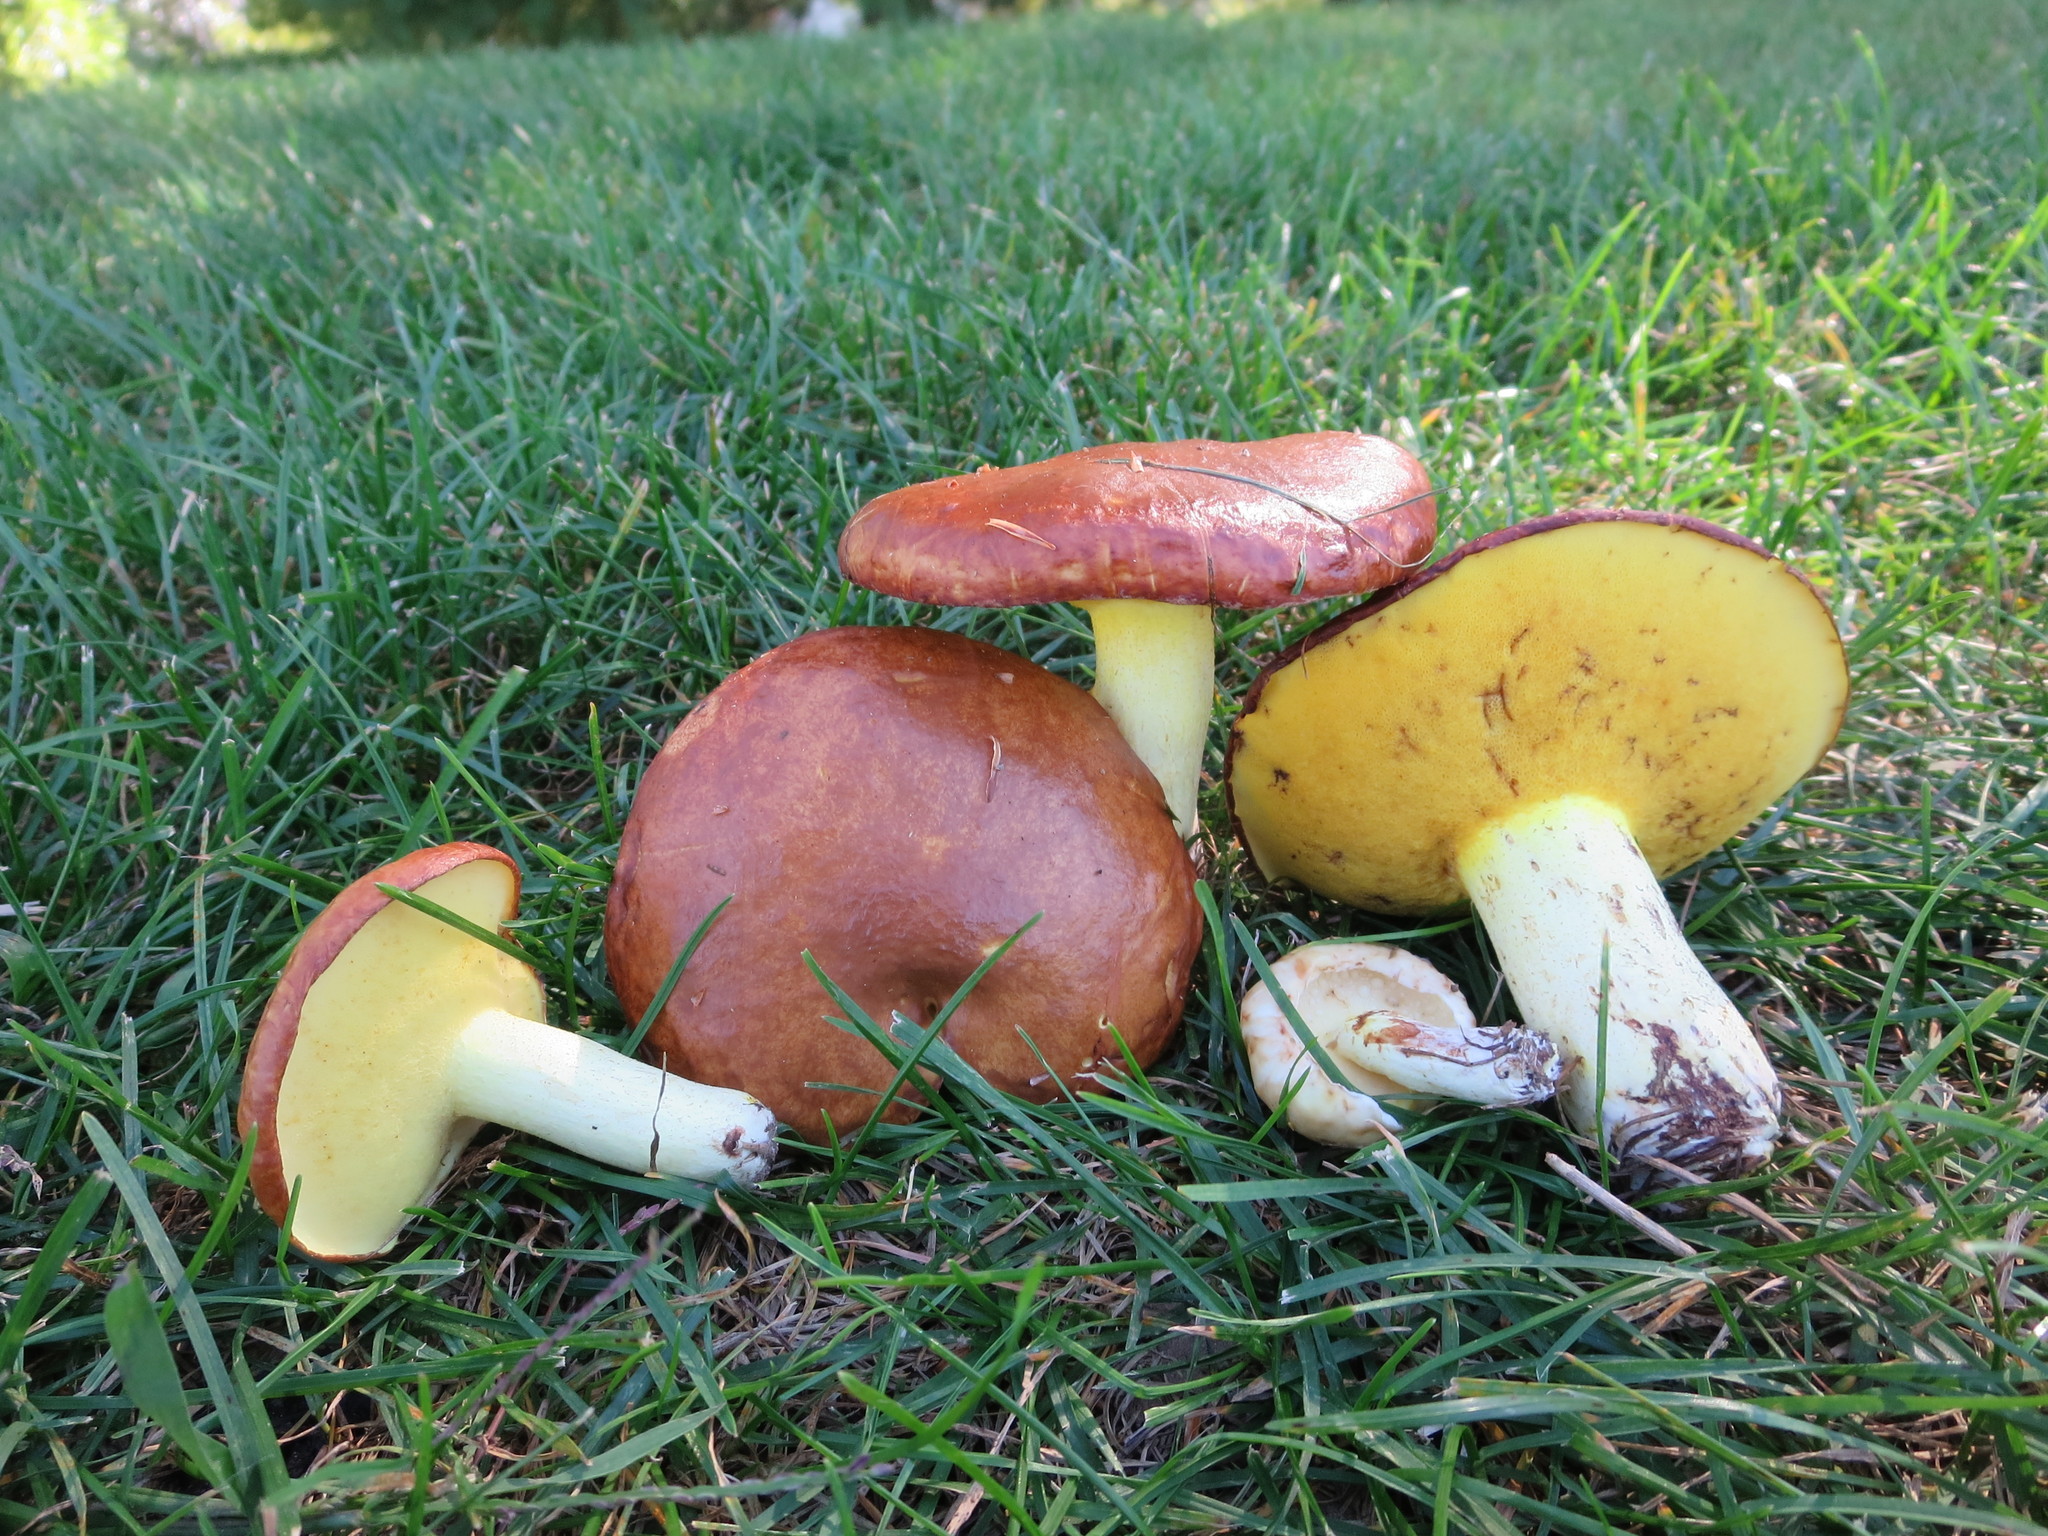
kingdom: Fungi
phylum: Basidiomycota
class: Agaricomycetes
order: Boletales
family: Suillaceae
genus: Suillus
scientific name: Suillus brevipes
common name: Short-stalked suillus
